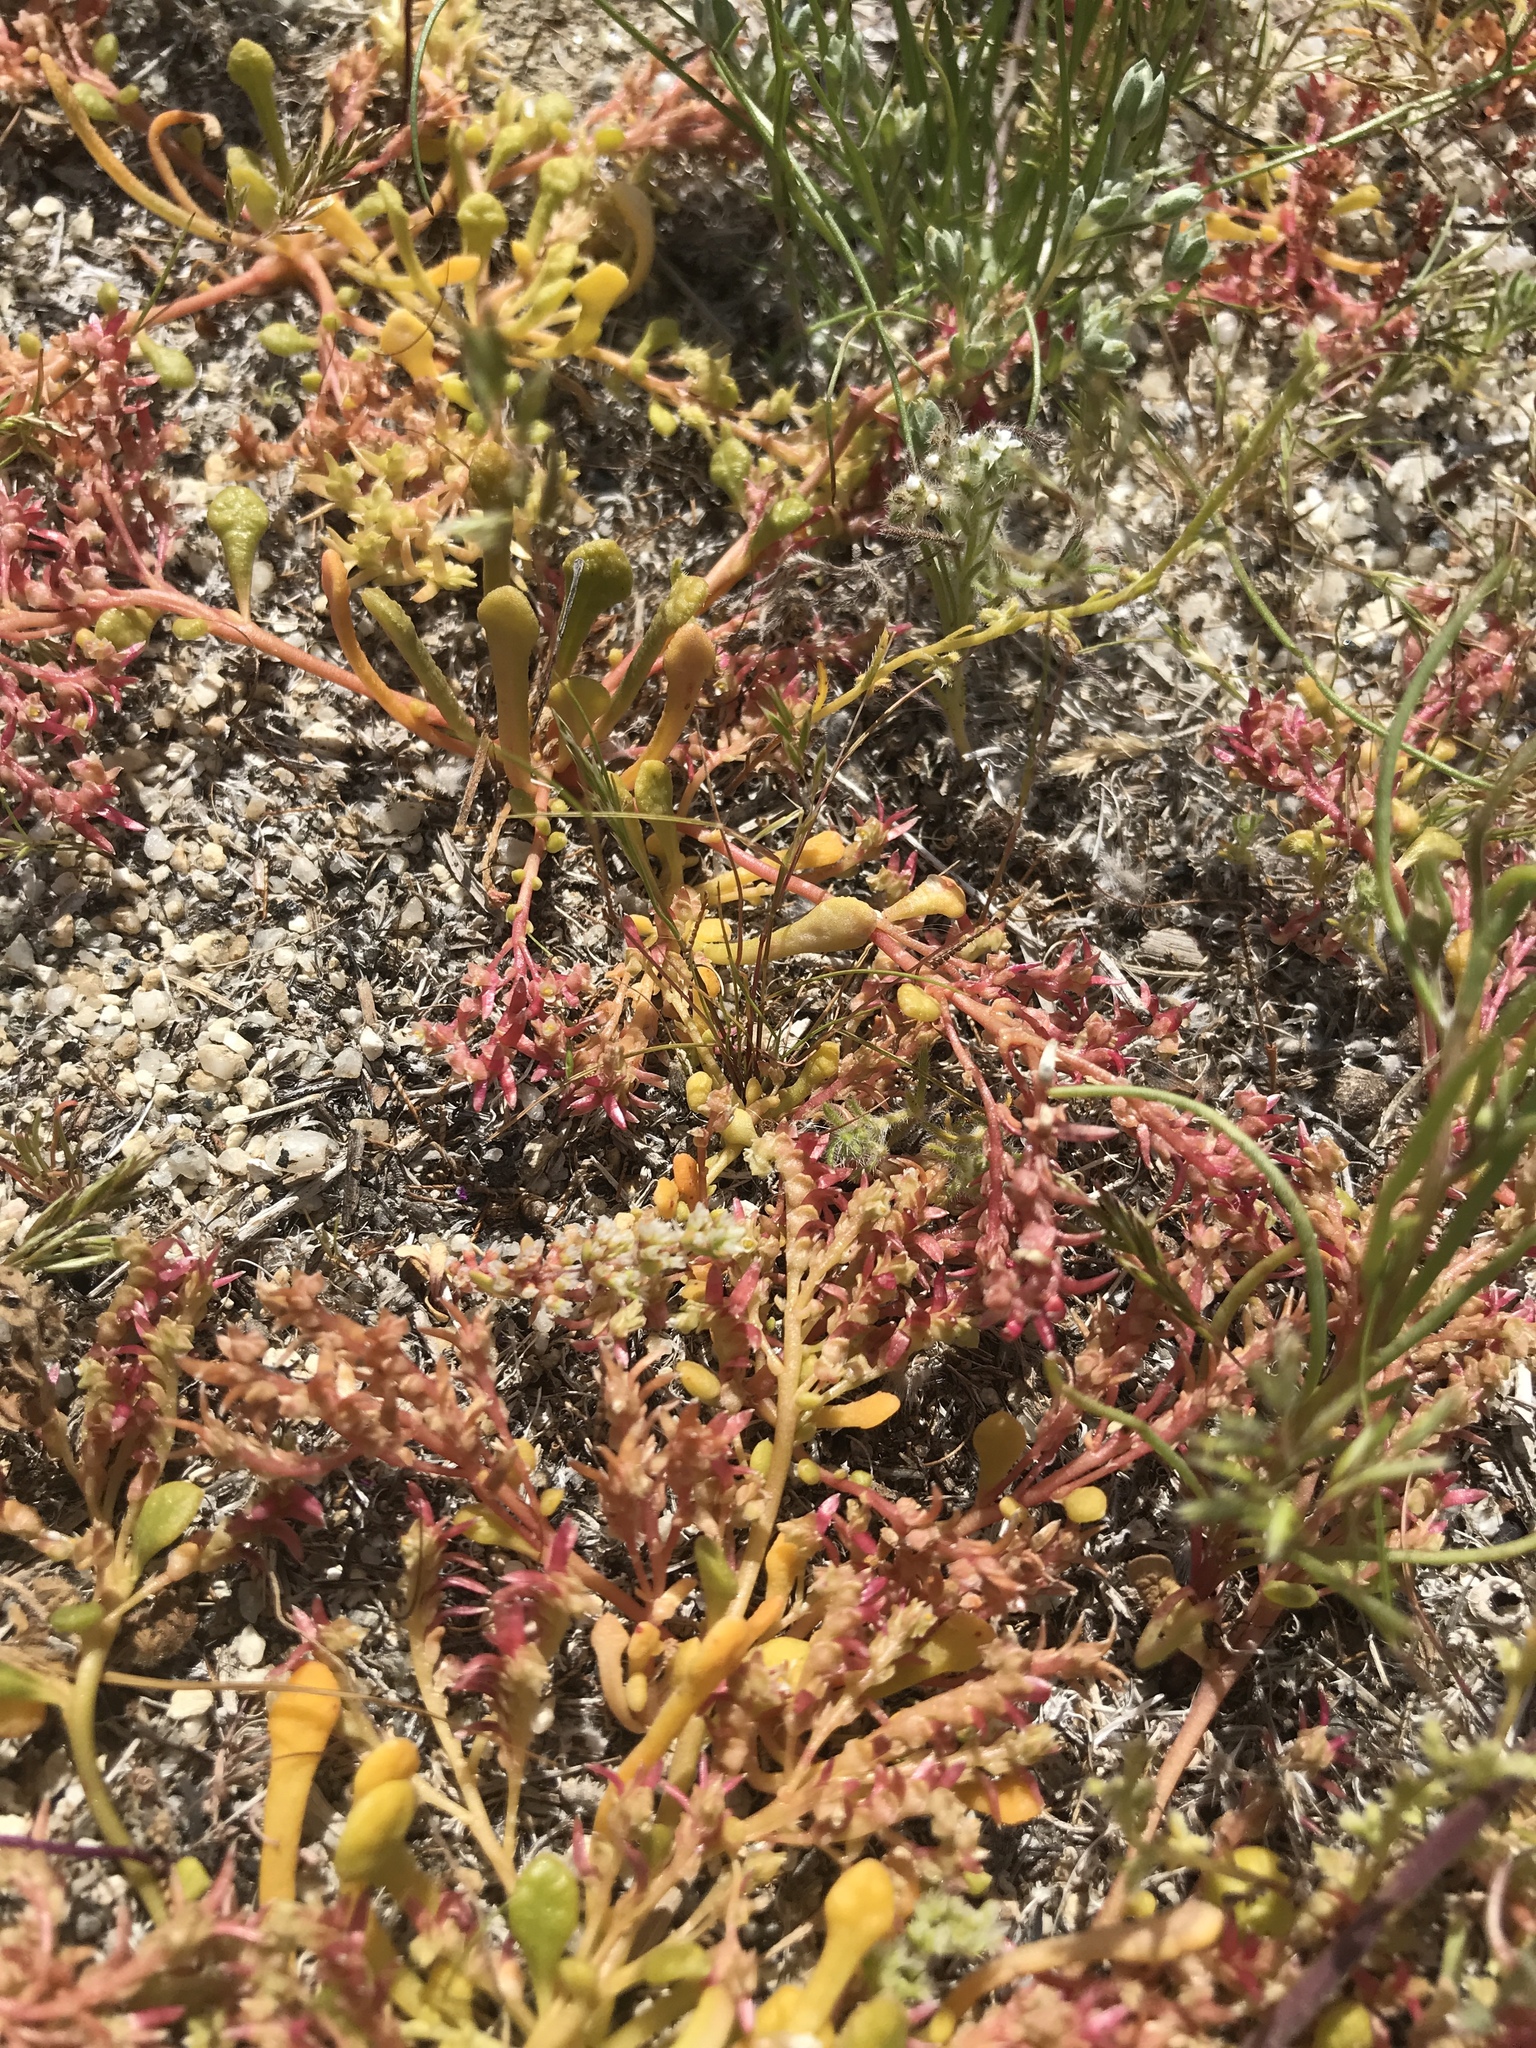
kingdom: Plantae
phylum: Tracheophyta
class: Magnoliopsida
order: Caryophyllales
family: Montiaceae
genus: Calyptridium
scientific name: Calyptridium monandrum
